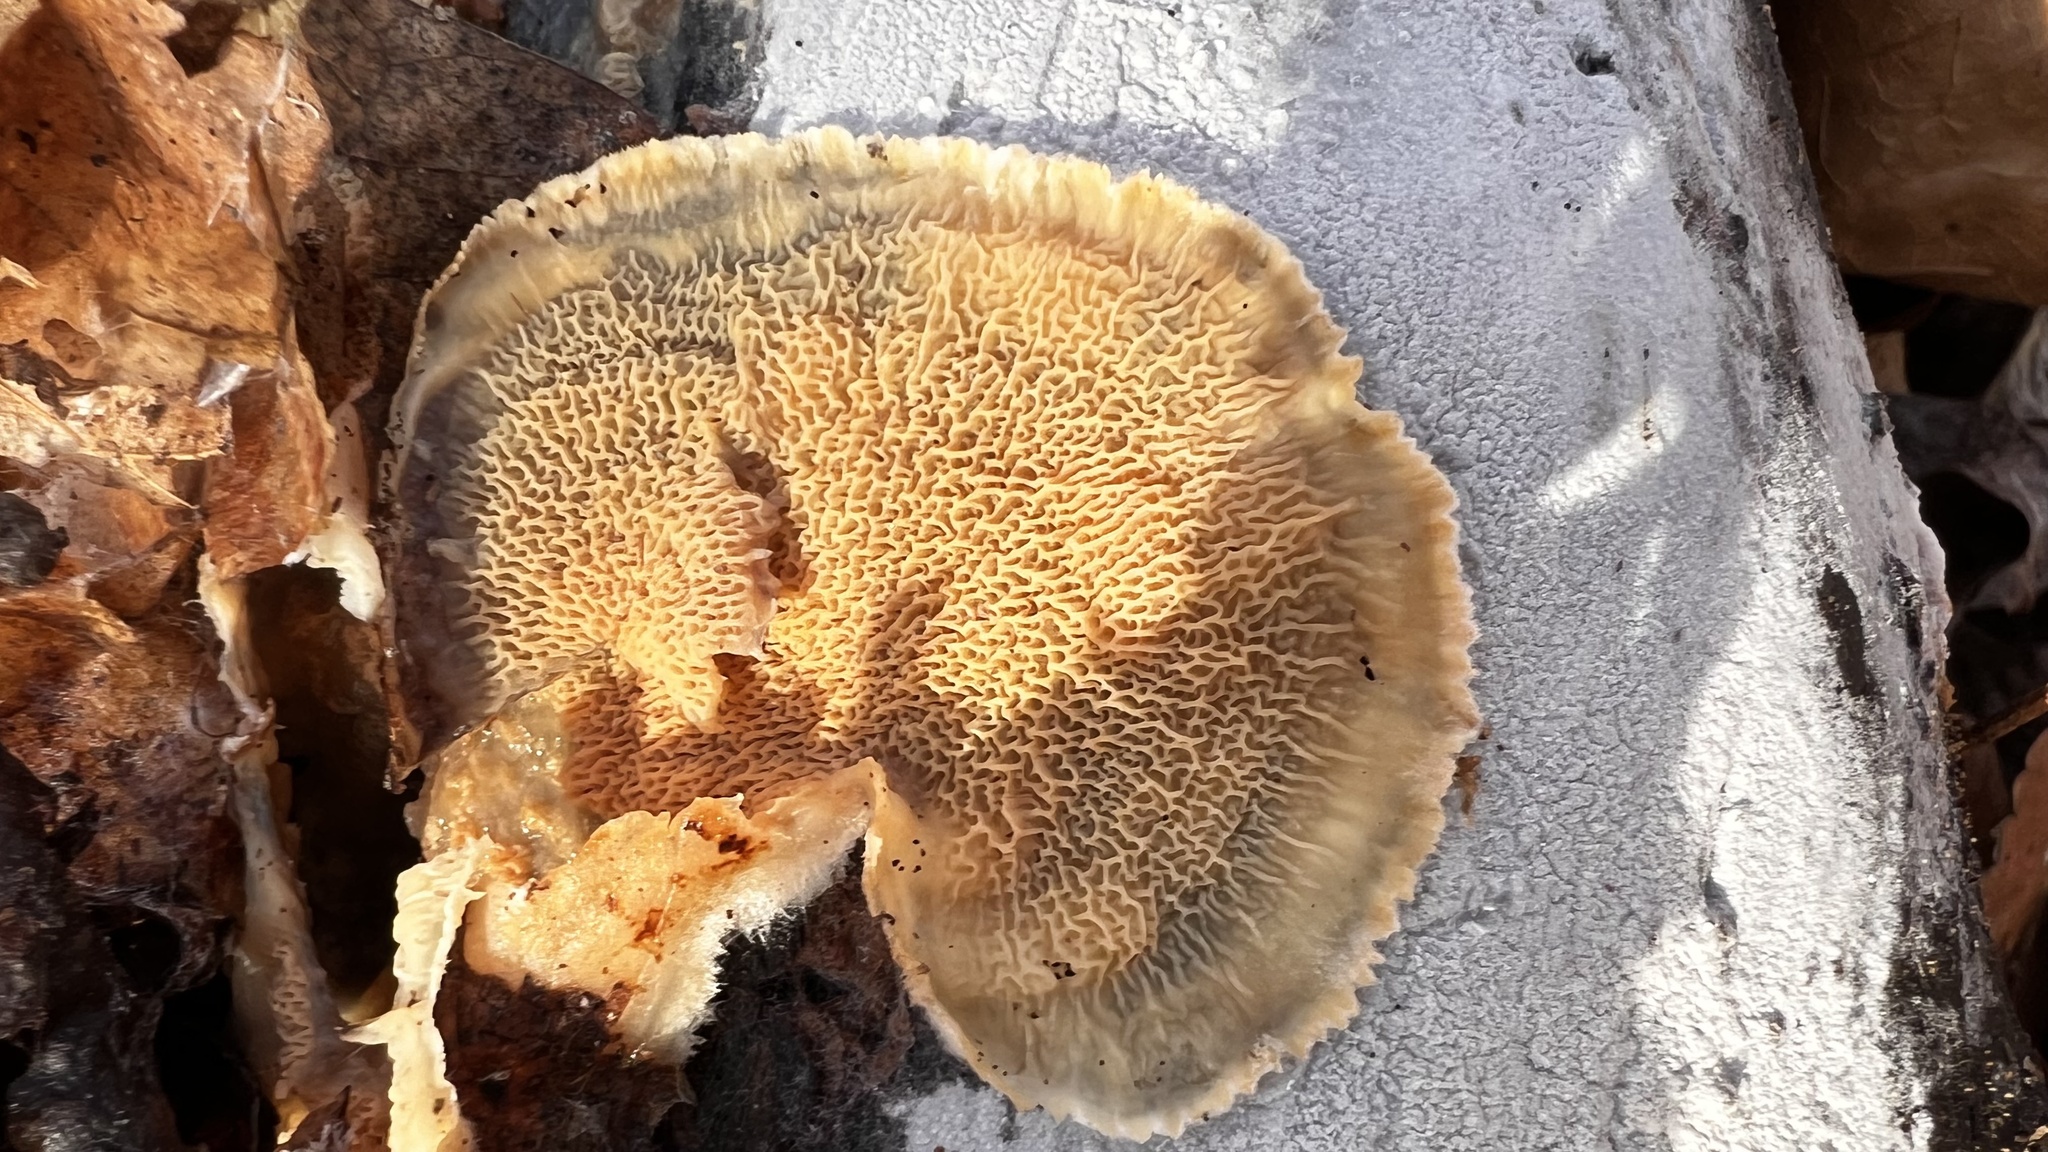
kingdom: Fungi
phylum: Basidiomycota
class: Agaricomycetes
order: Polyporales
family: Meruliaceae
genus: Phlebia
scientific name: Phlebia tremellosa
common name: Jelly rot
